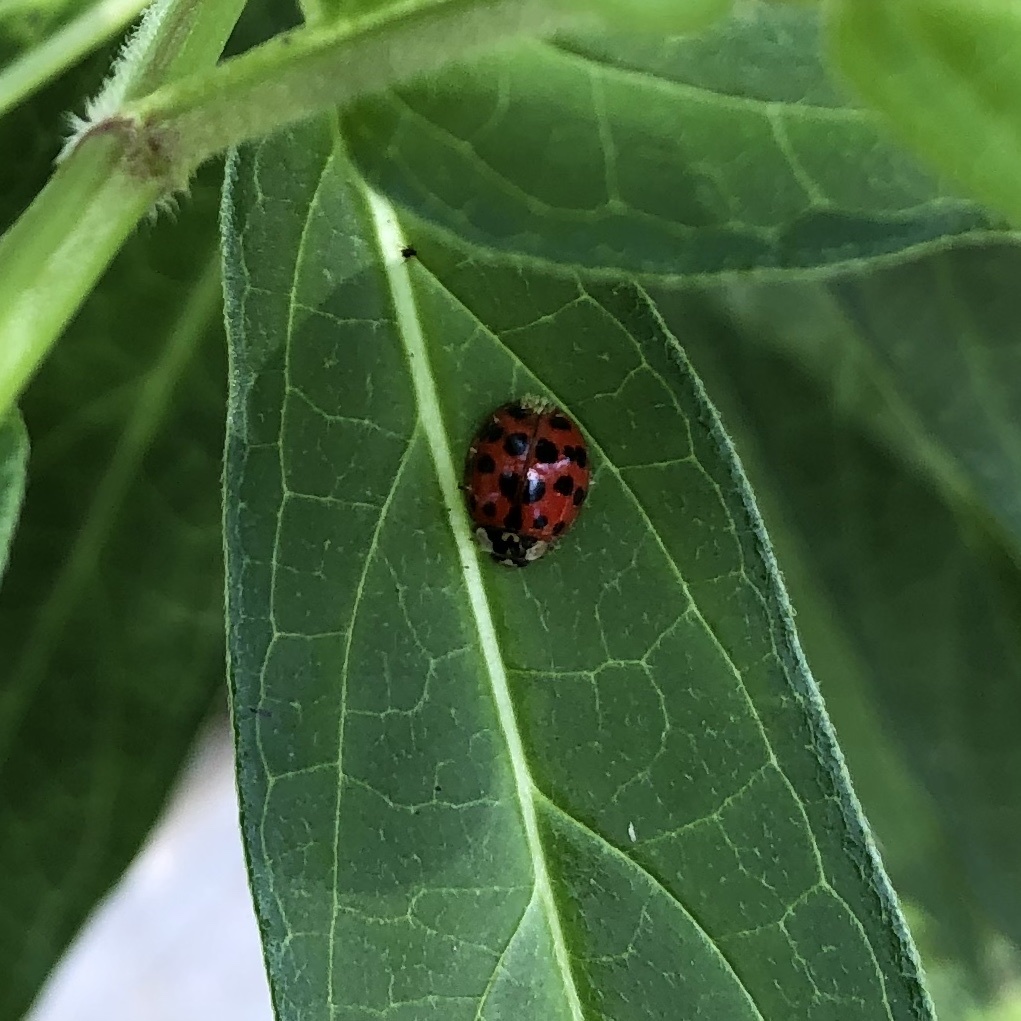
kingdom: Animalia
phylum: Arthropoda
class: Insecta
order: Coleoptera
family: Coccinellidae
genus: Harmonia
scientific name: Harmonia axyridis
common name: Harlequin ladybird
